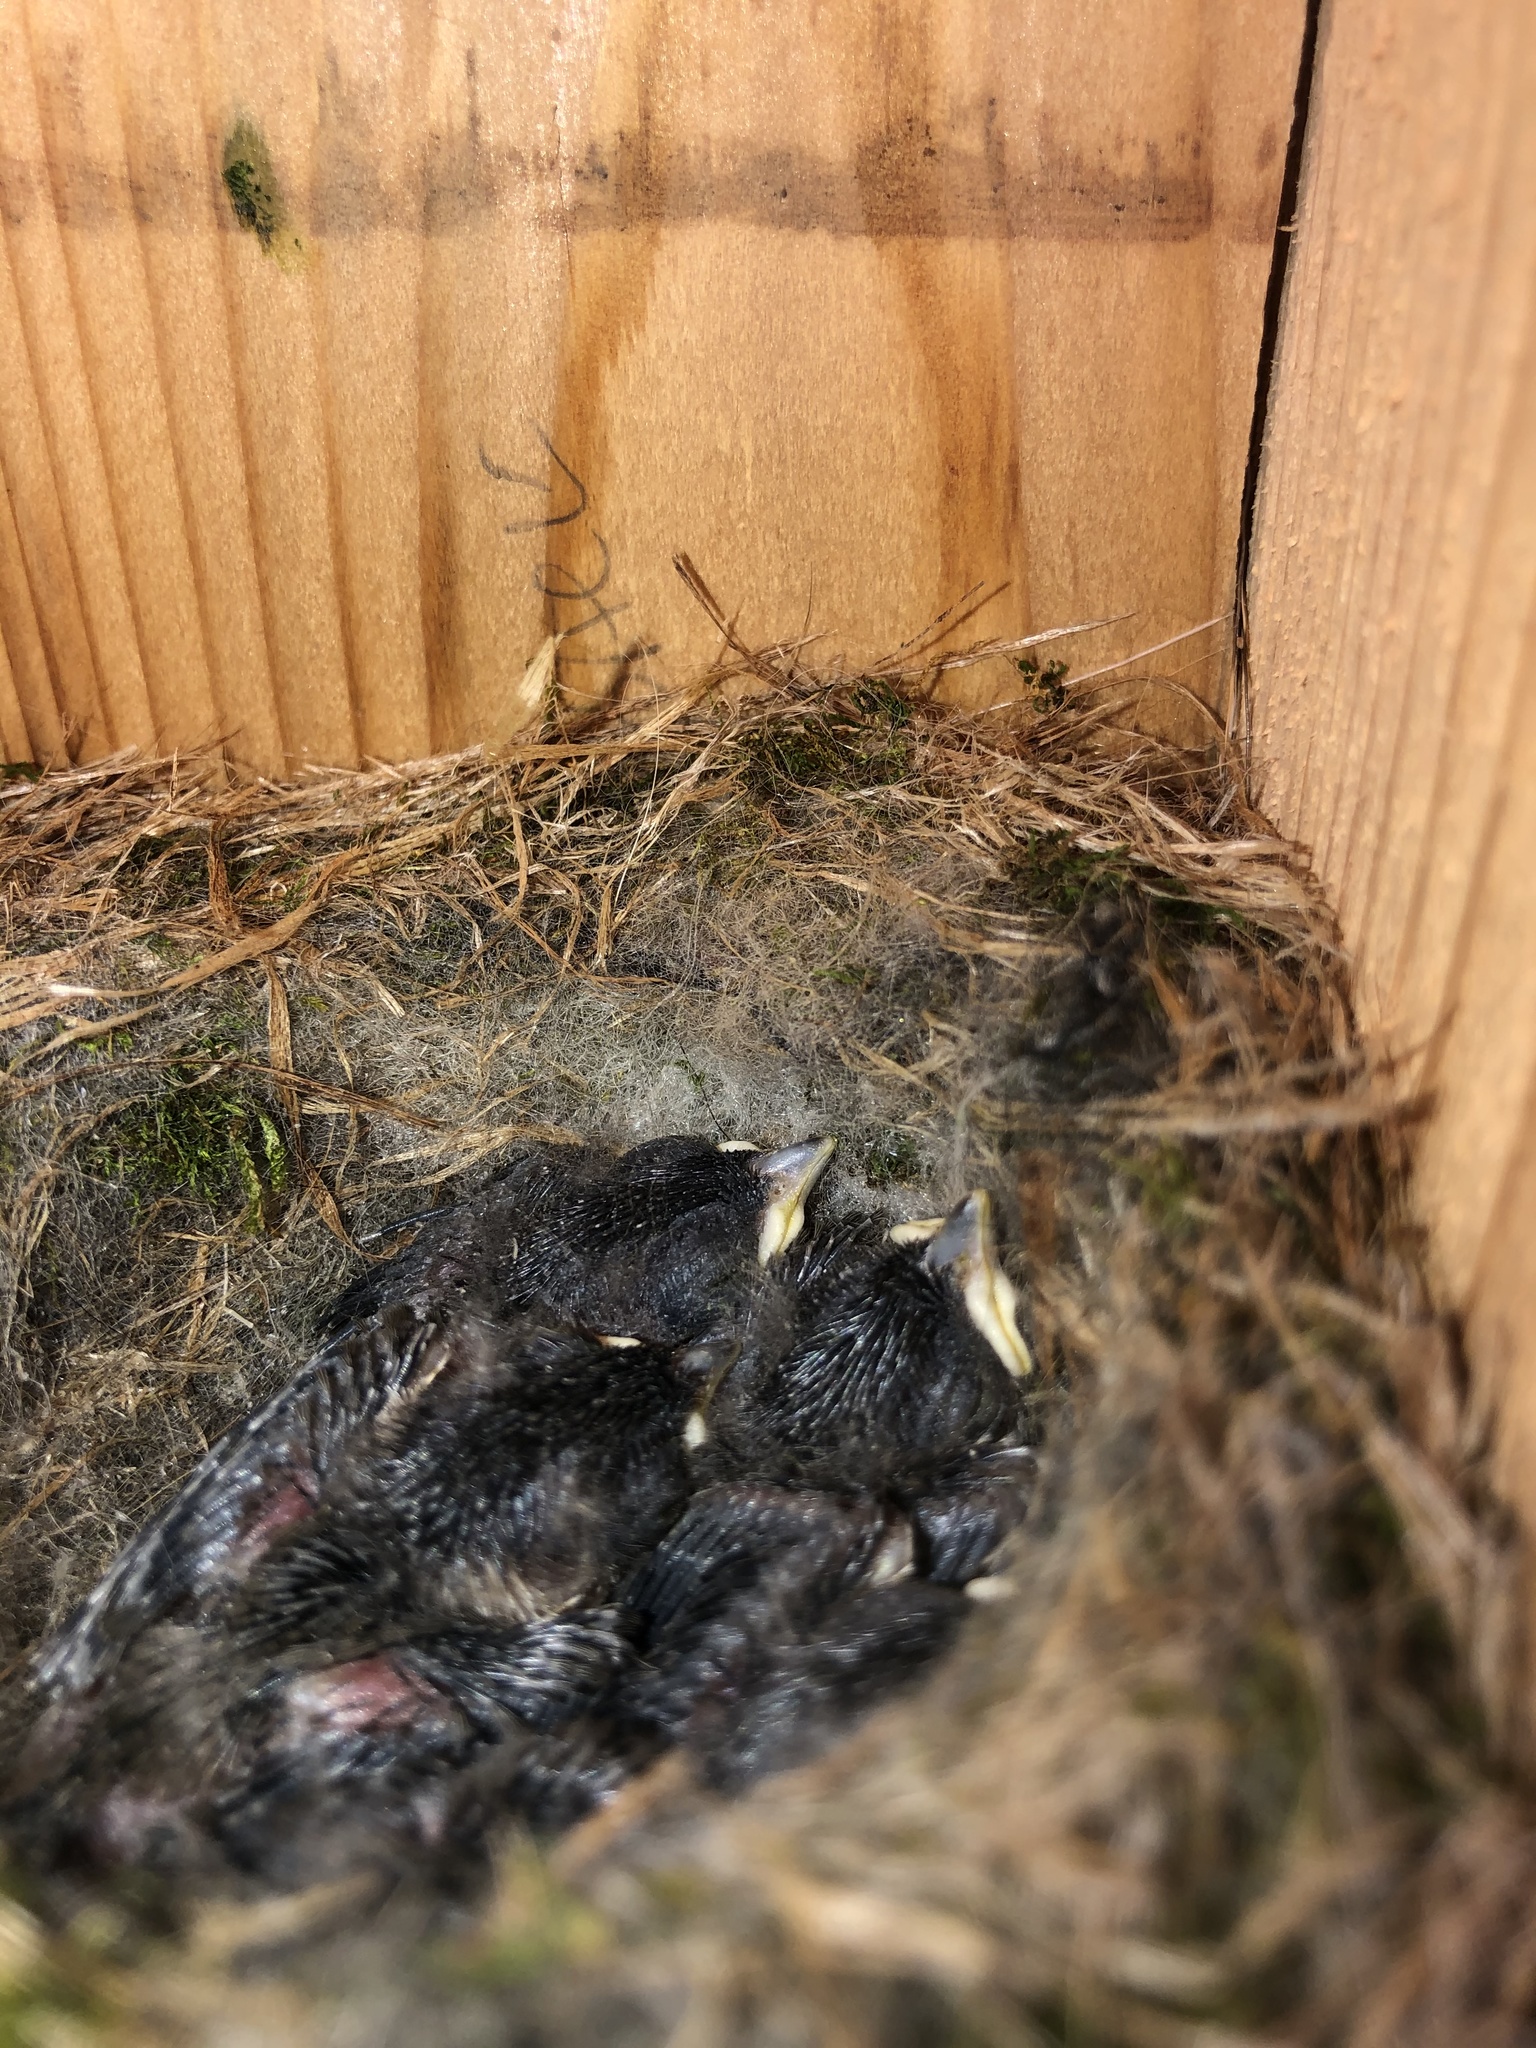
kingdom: Animalia
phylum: Chordata
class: Aves
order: Passeriformes
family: Paridae
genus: Poecile
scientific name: Poecile carolinensis
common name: Carolina chickadee
